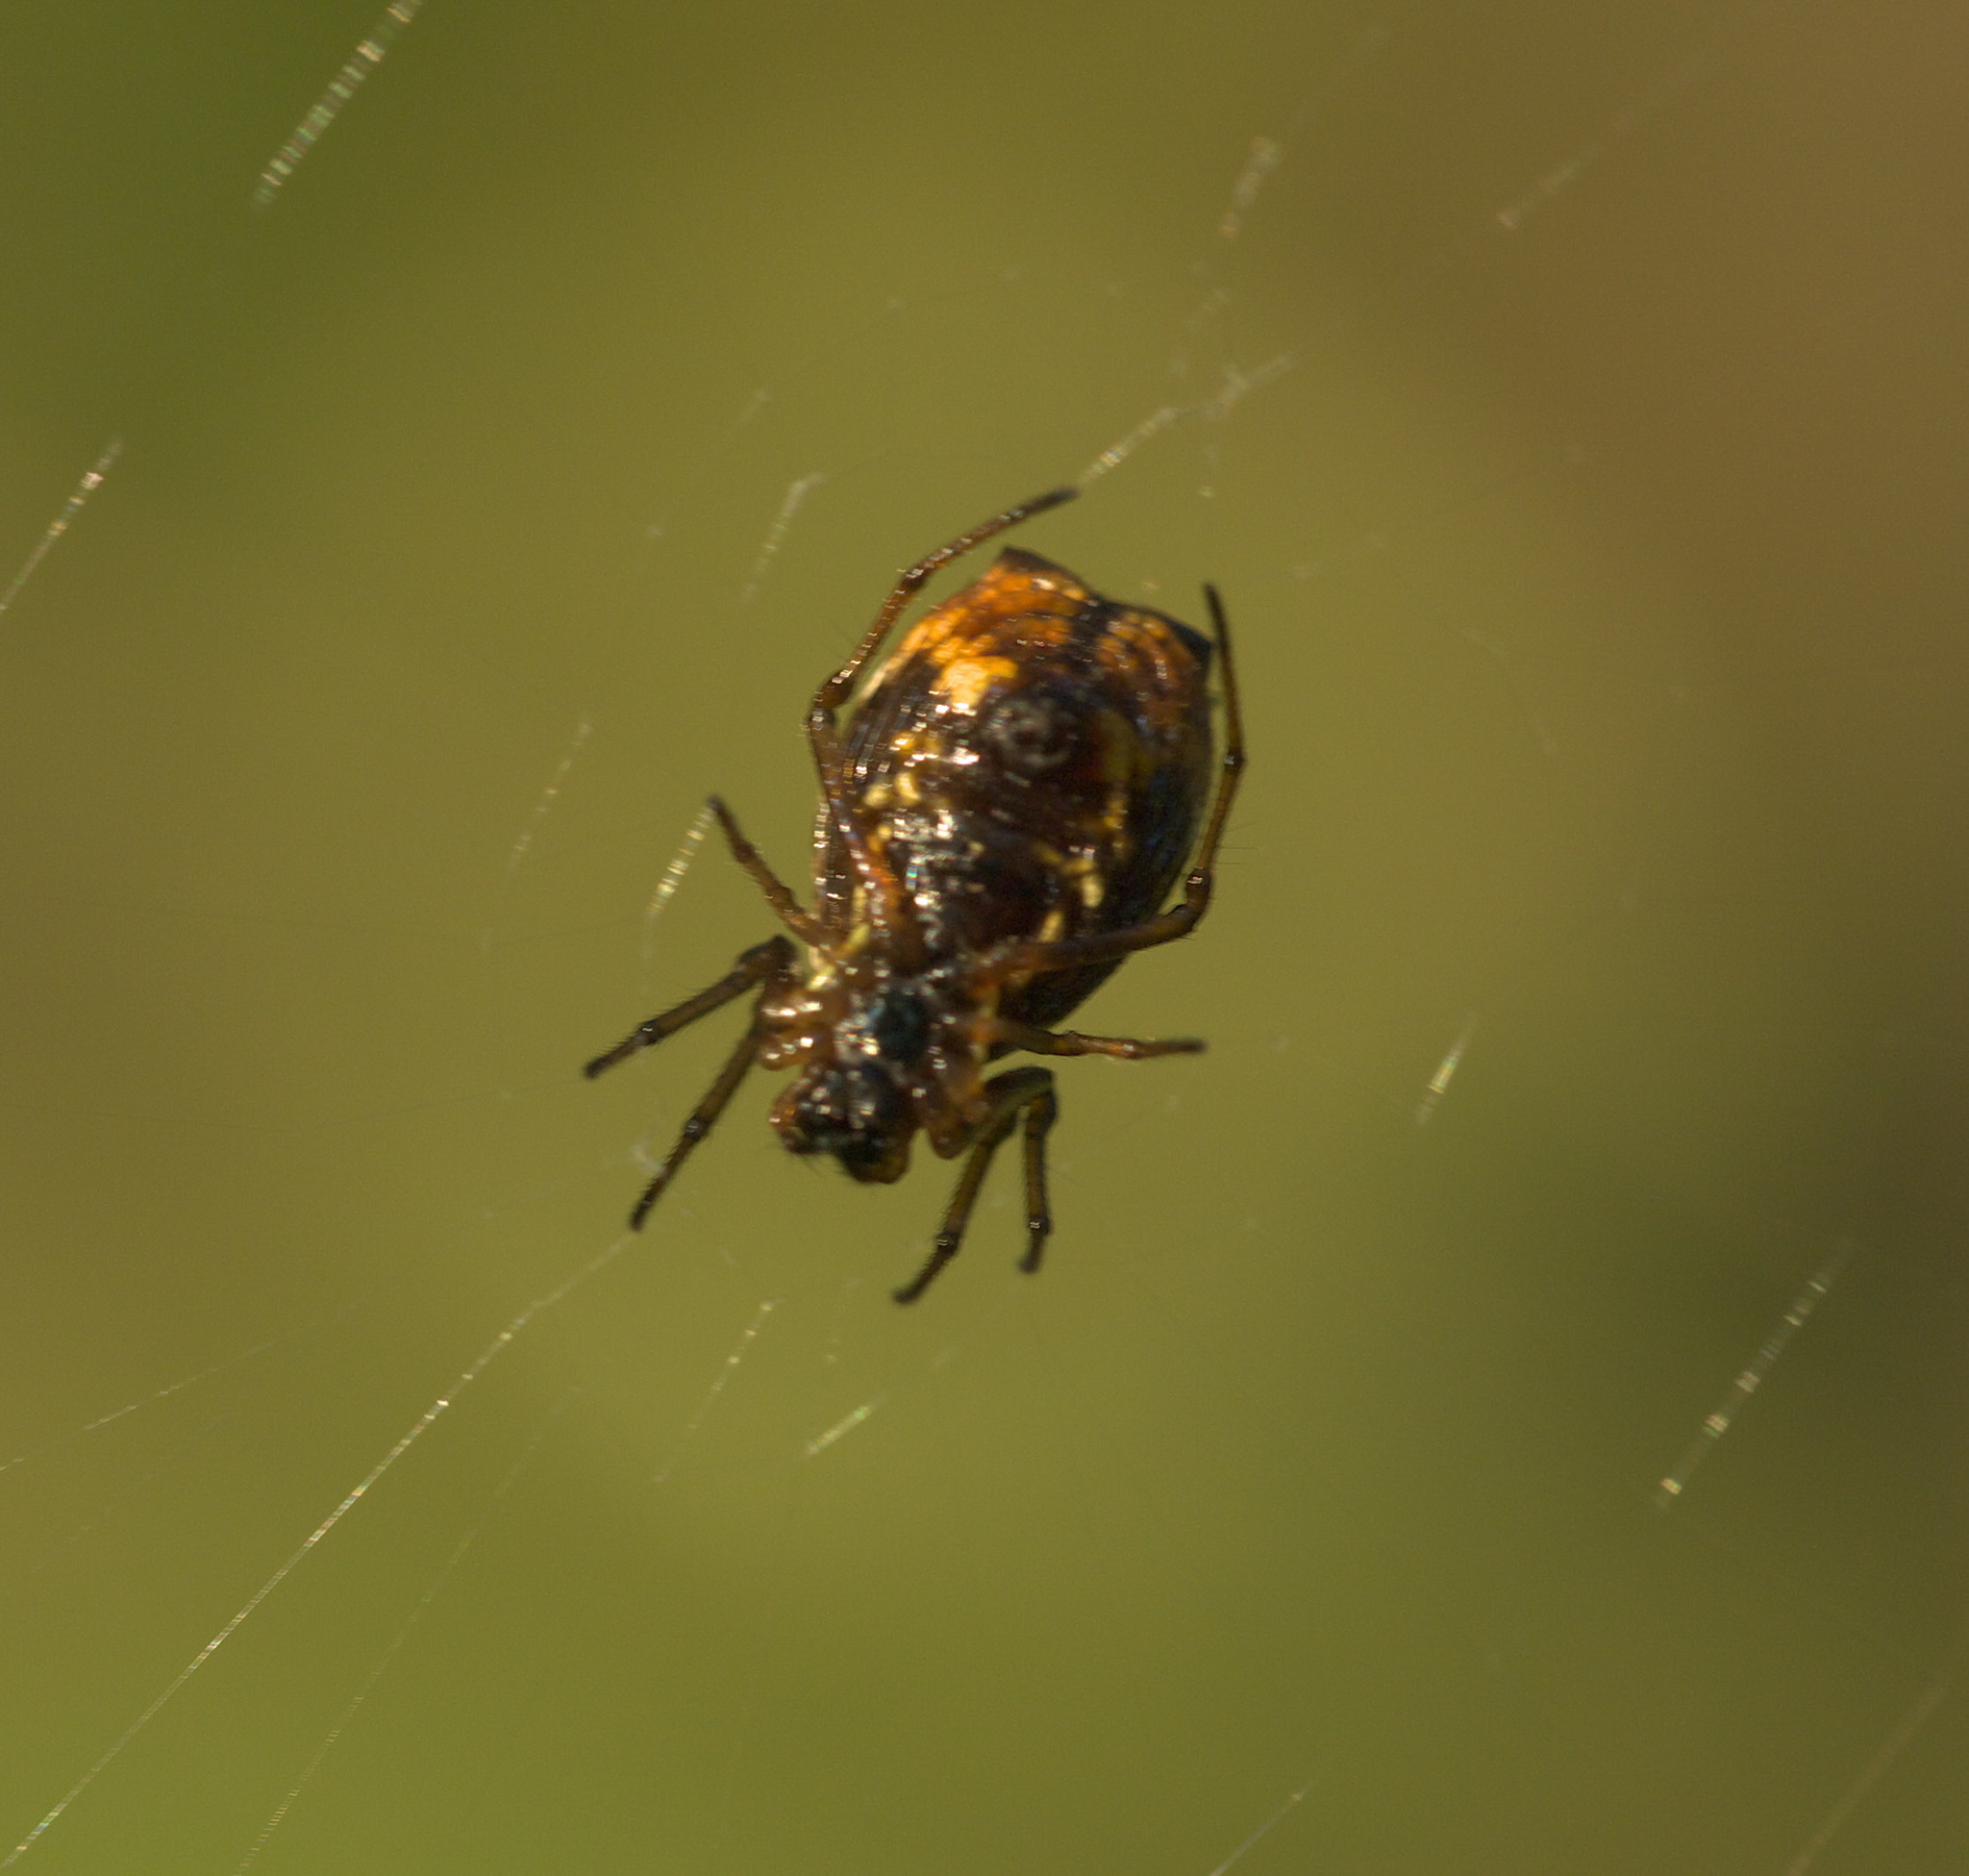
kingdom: Animalia
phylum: Arthropoda
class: Arachnida
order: Araneae
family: Araneidae
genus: Micrathena
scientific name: Micrathena mitrata
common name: Orb weavers
